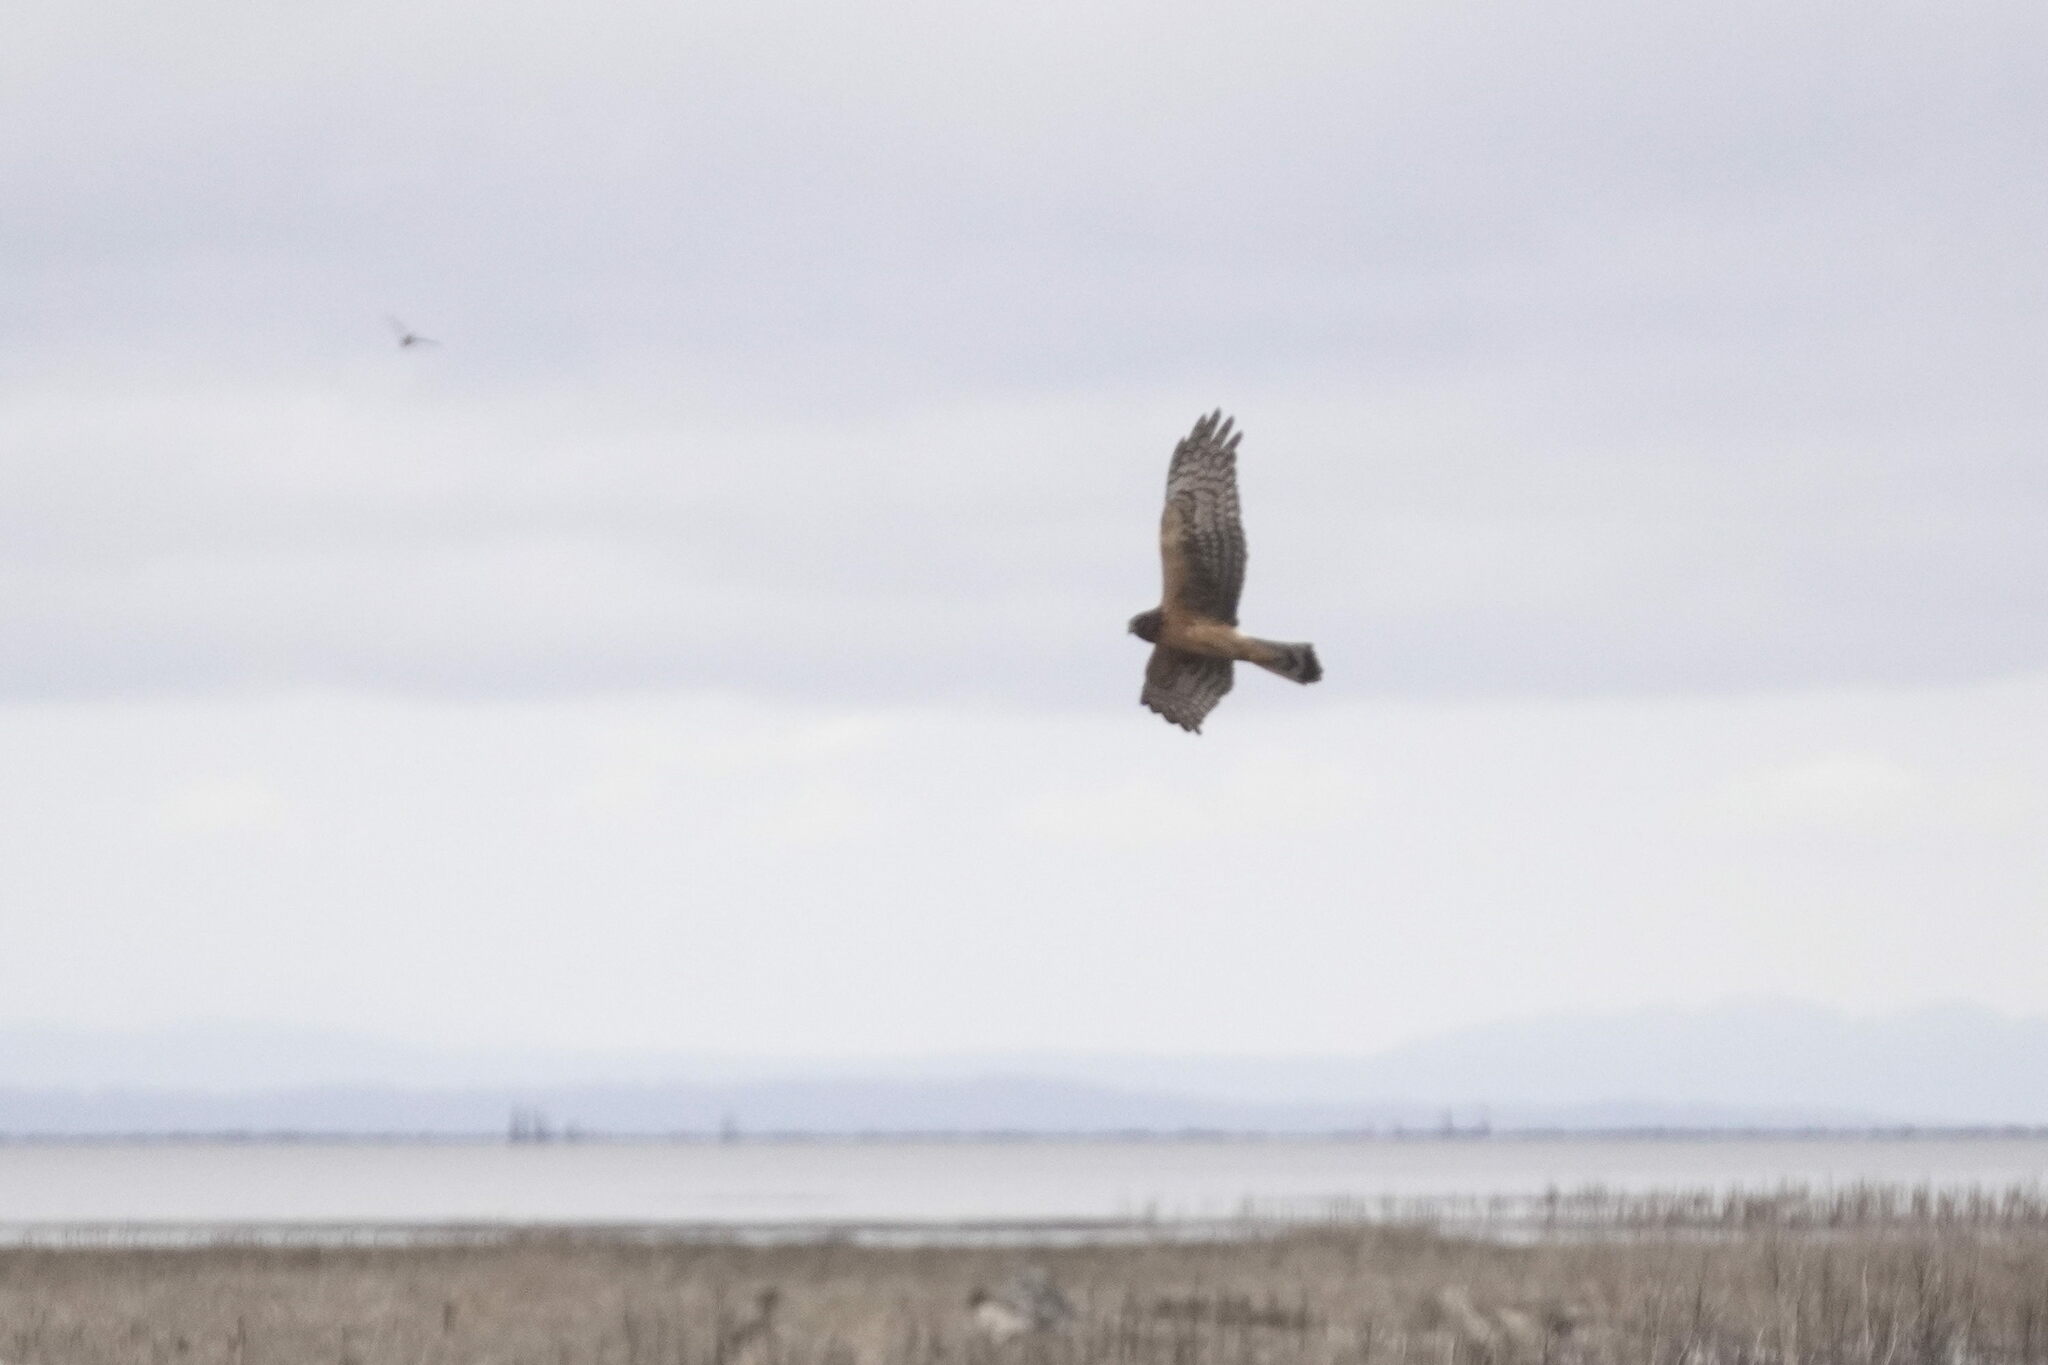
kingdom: Animalia
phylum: Chordata
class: Aves
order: Accipitriformes
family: Accipitridae
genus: Circus
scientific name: Circus cyaneus
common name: Hen harrier
